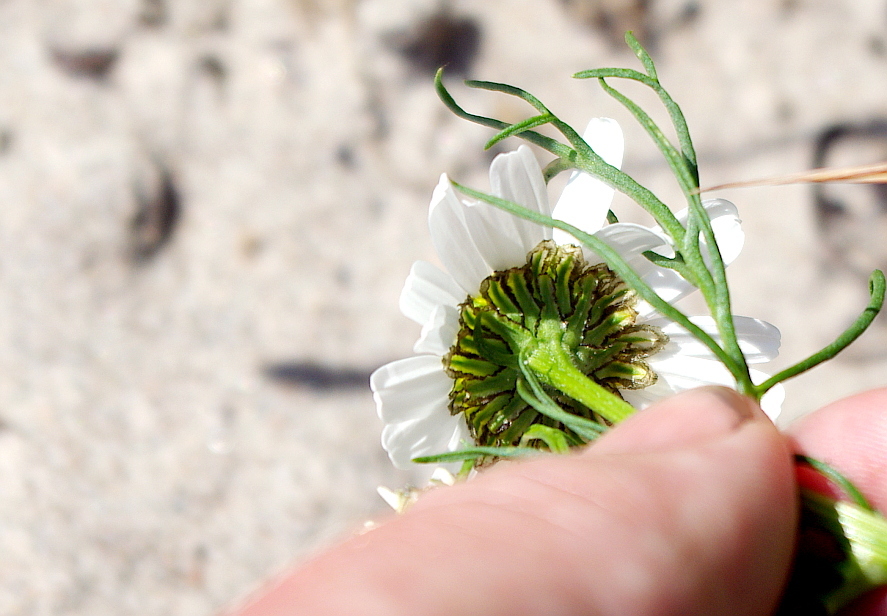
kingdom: Plantae
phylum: Tracheophyta
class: Magnoliopsida
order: Asterales
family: Asteraceae
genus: Tripleurospermum
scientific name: Tripleurospermum maritimum
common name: Sea mayweed
